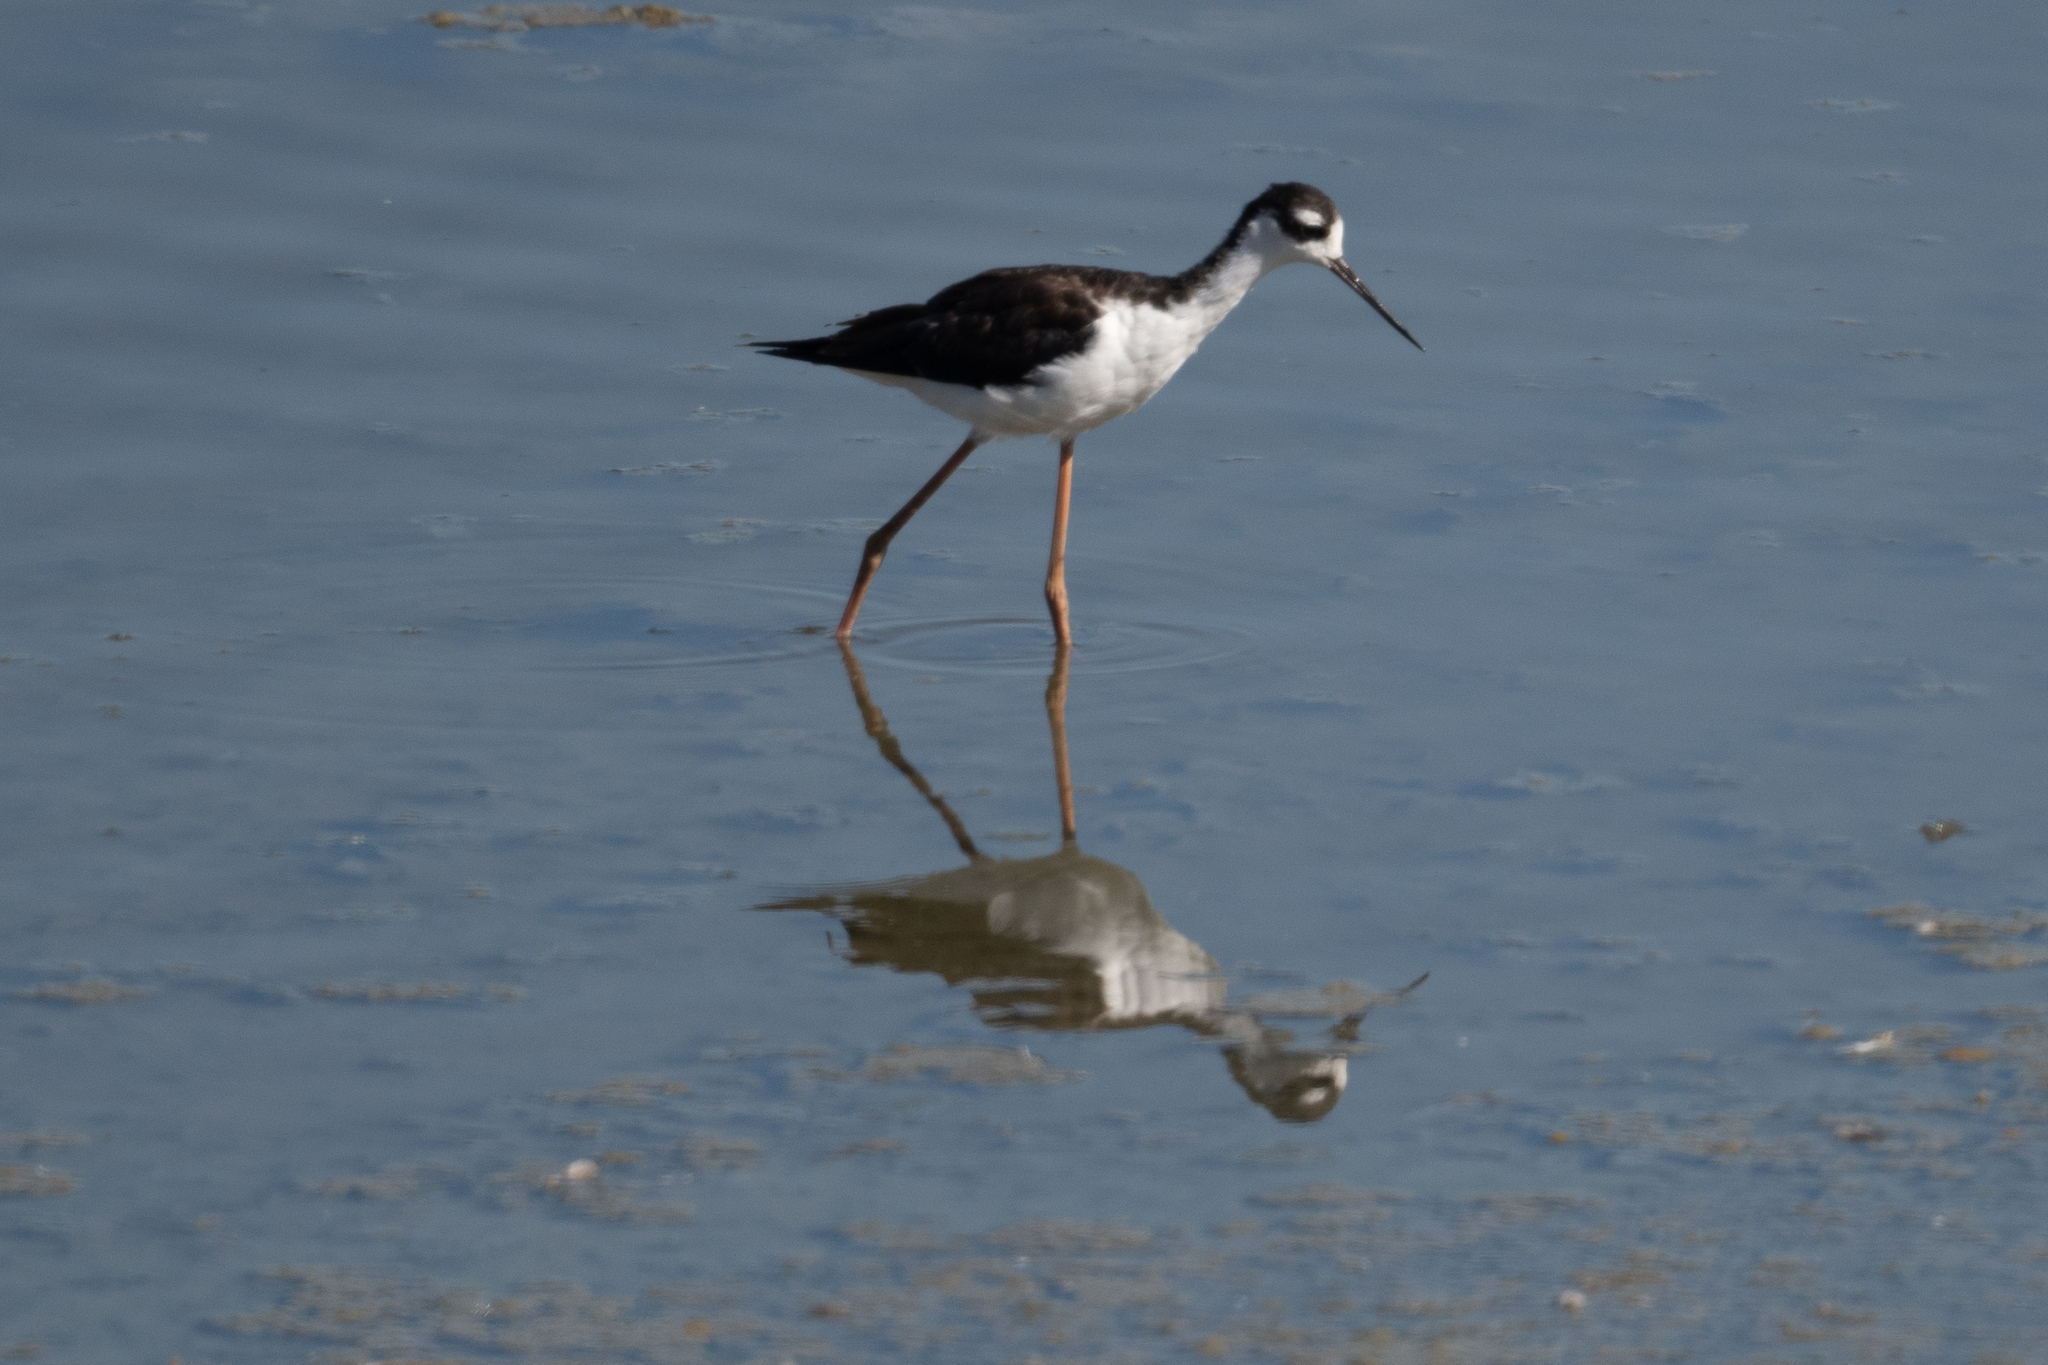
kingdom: Animalia
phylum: Chordata
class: Aves
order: Charadriiformes
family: Recurvirostridae
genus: Himantopus
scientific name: Himantopus mexicanus
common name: Black-necked stilt
